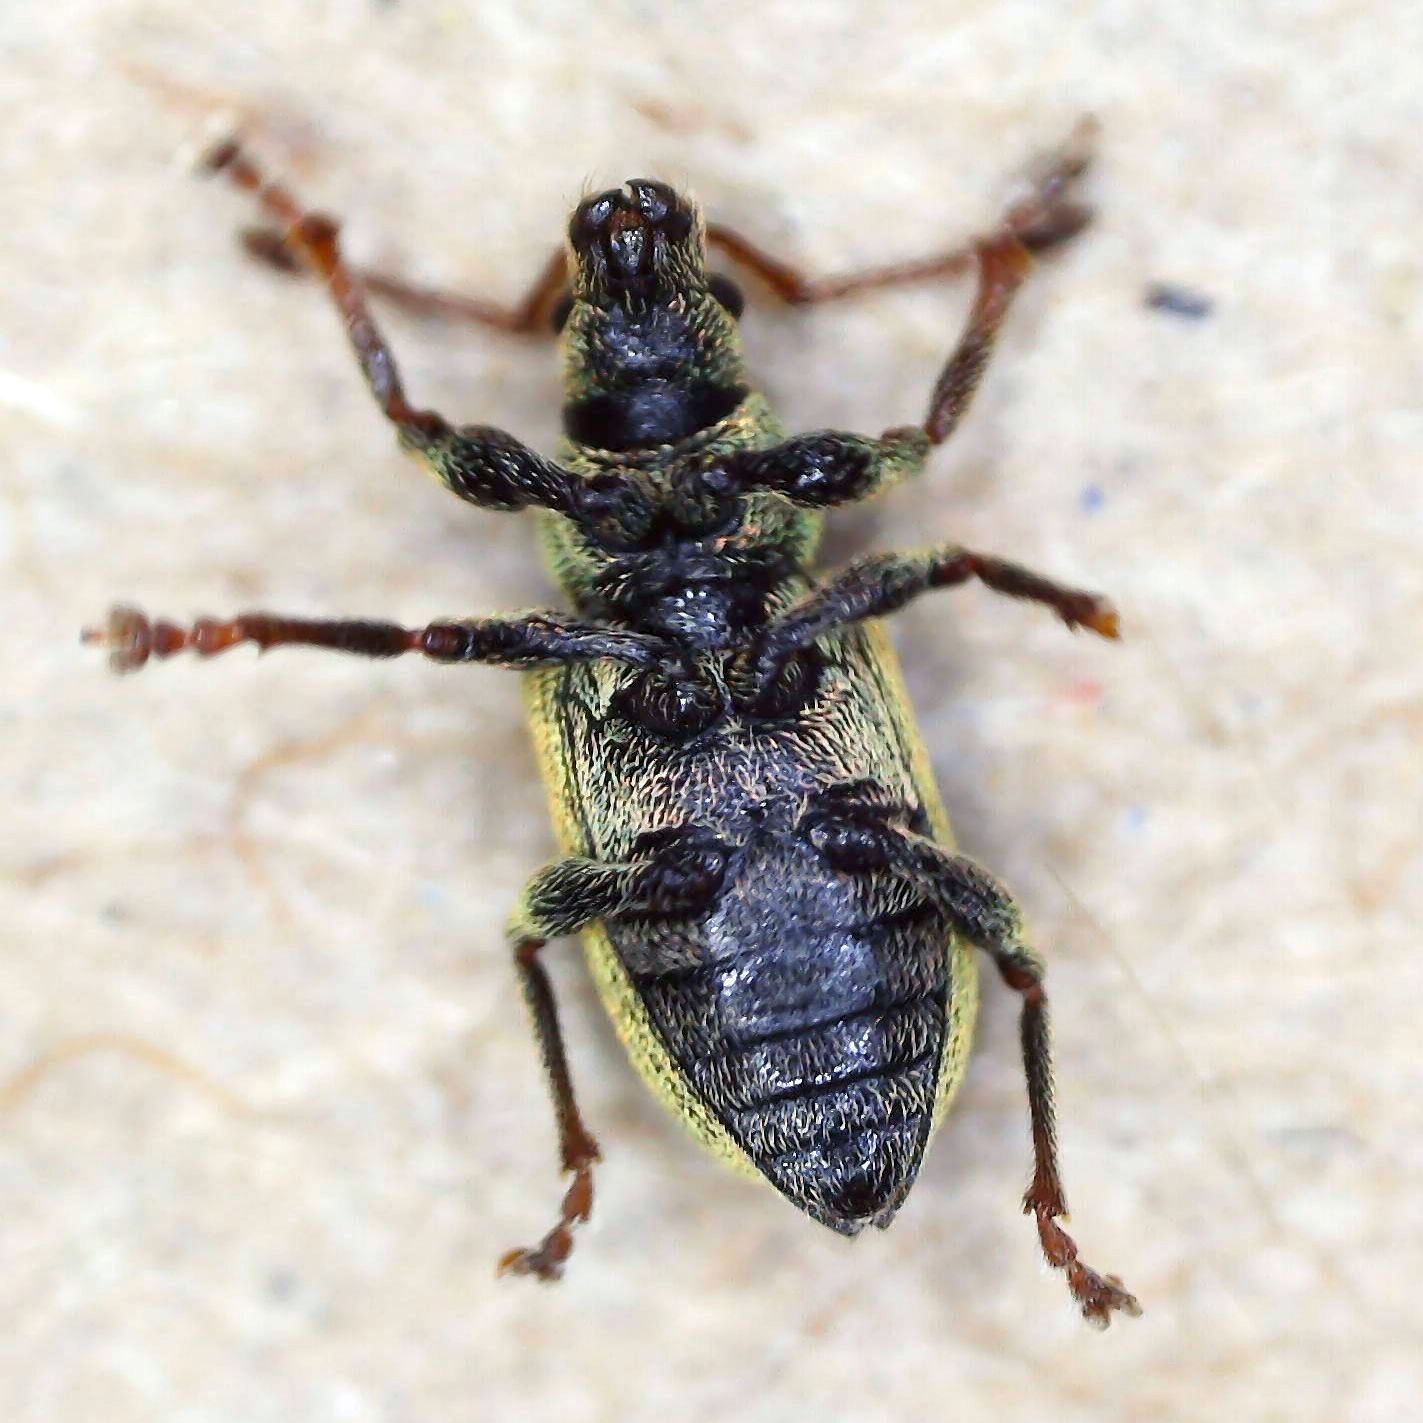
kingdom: Animalia
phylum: Arthropoda
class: Insecta
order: Coleoptera
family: Curculionidae
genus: Phyllobius
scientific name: Phyllobius roboretanus
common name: Small green nettle weevil
